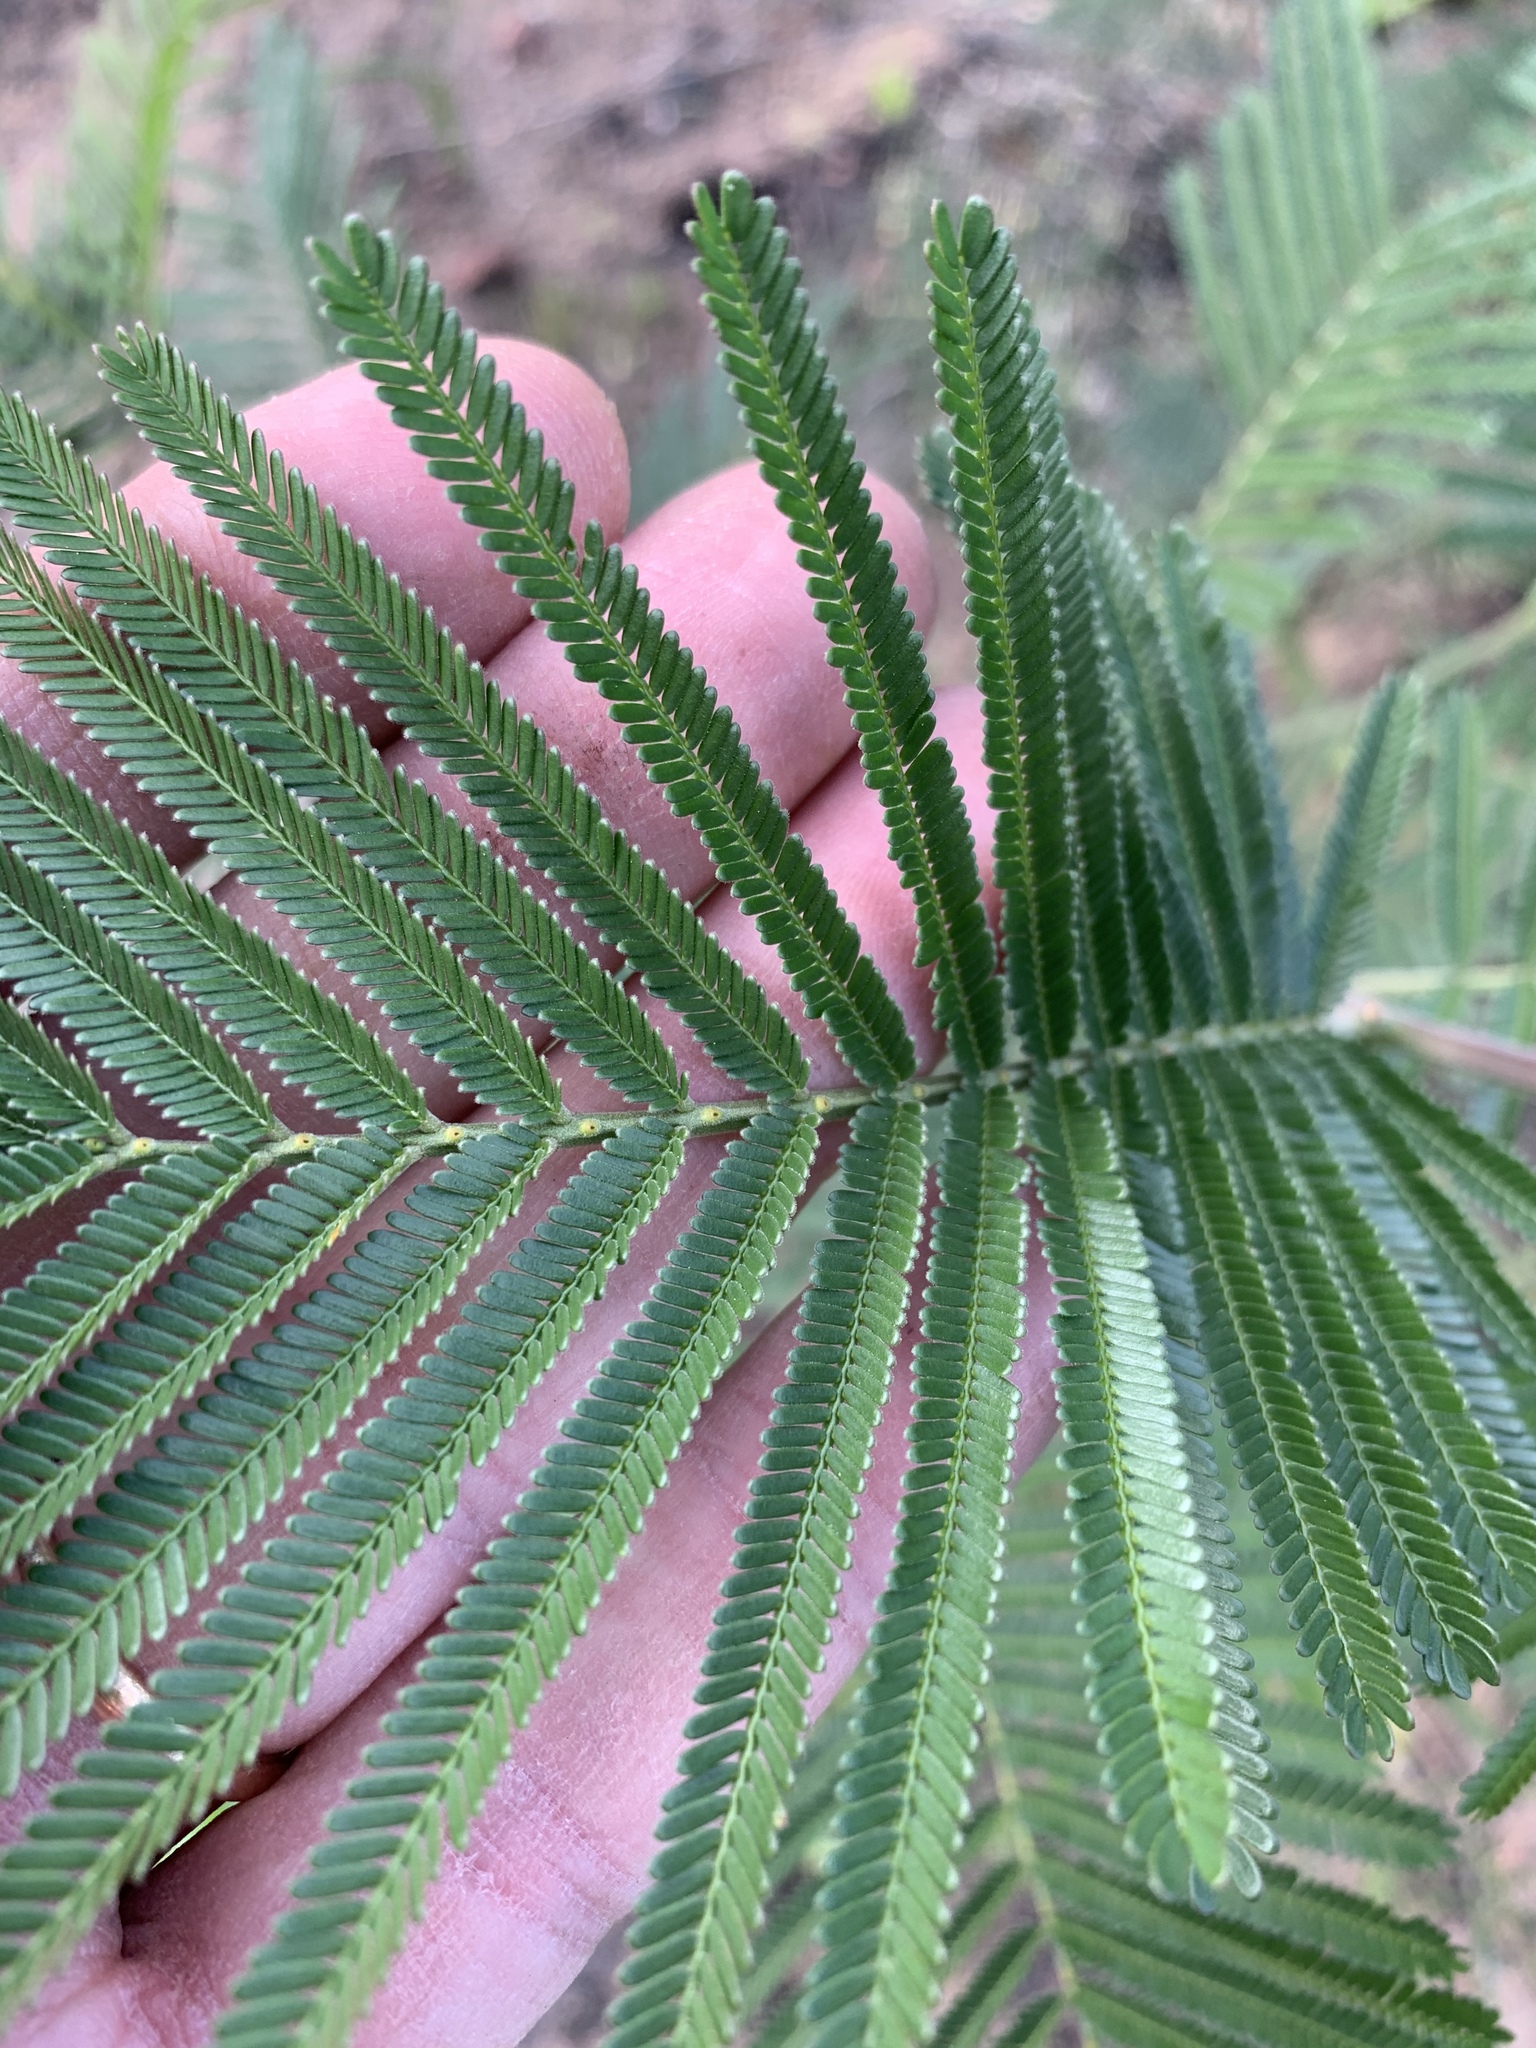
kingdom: Plantae
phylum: Tracheophyta
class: Magnoliopsida
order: Fabales
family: Fabaceae
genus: Acacia
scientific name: Acacia mearnsii
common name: Black wattle
